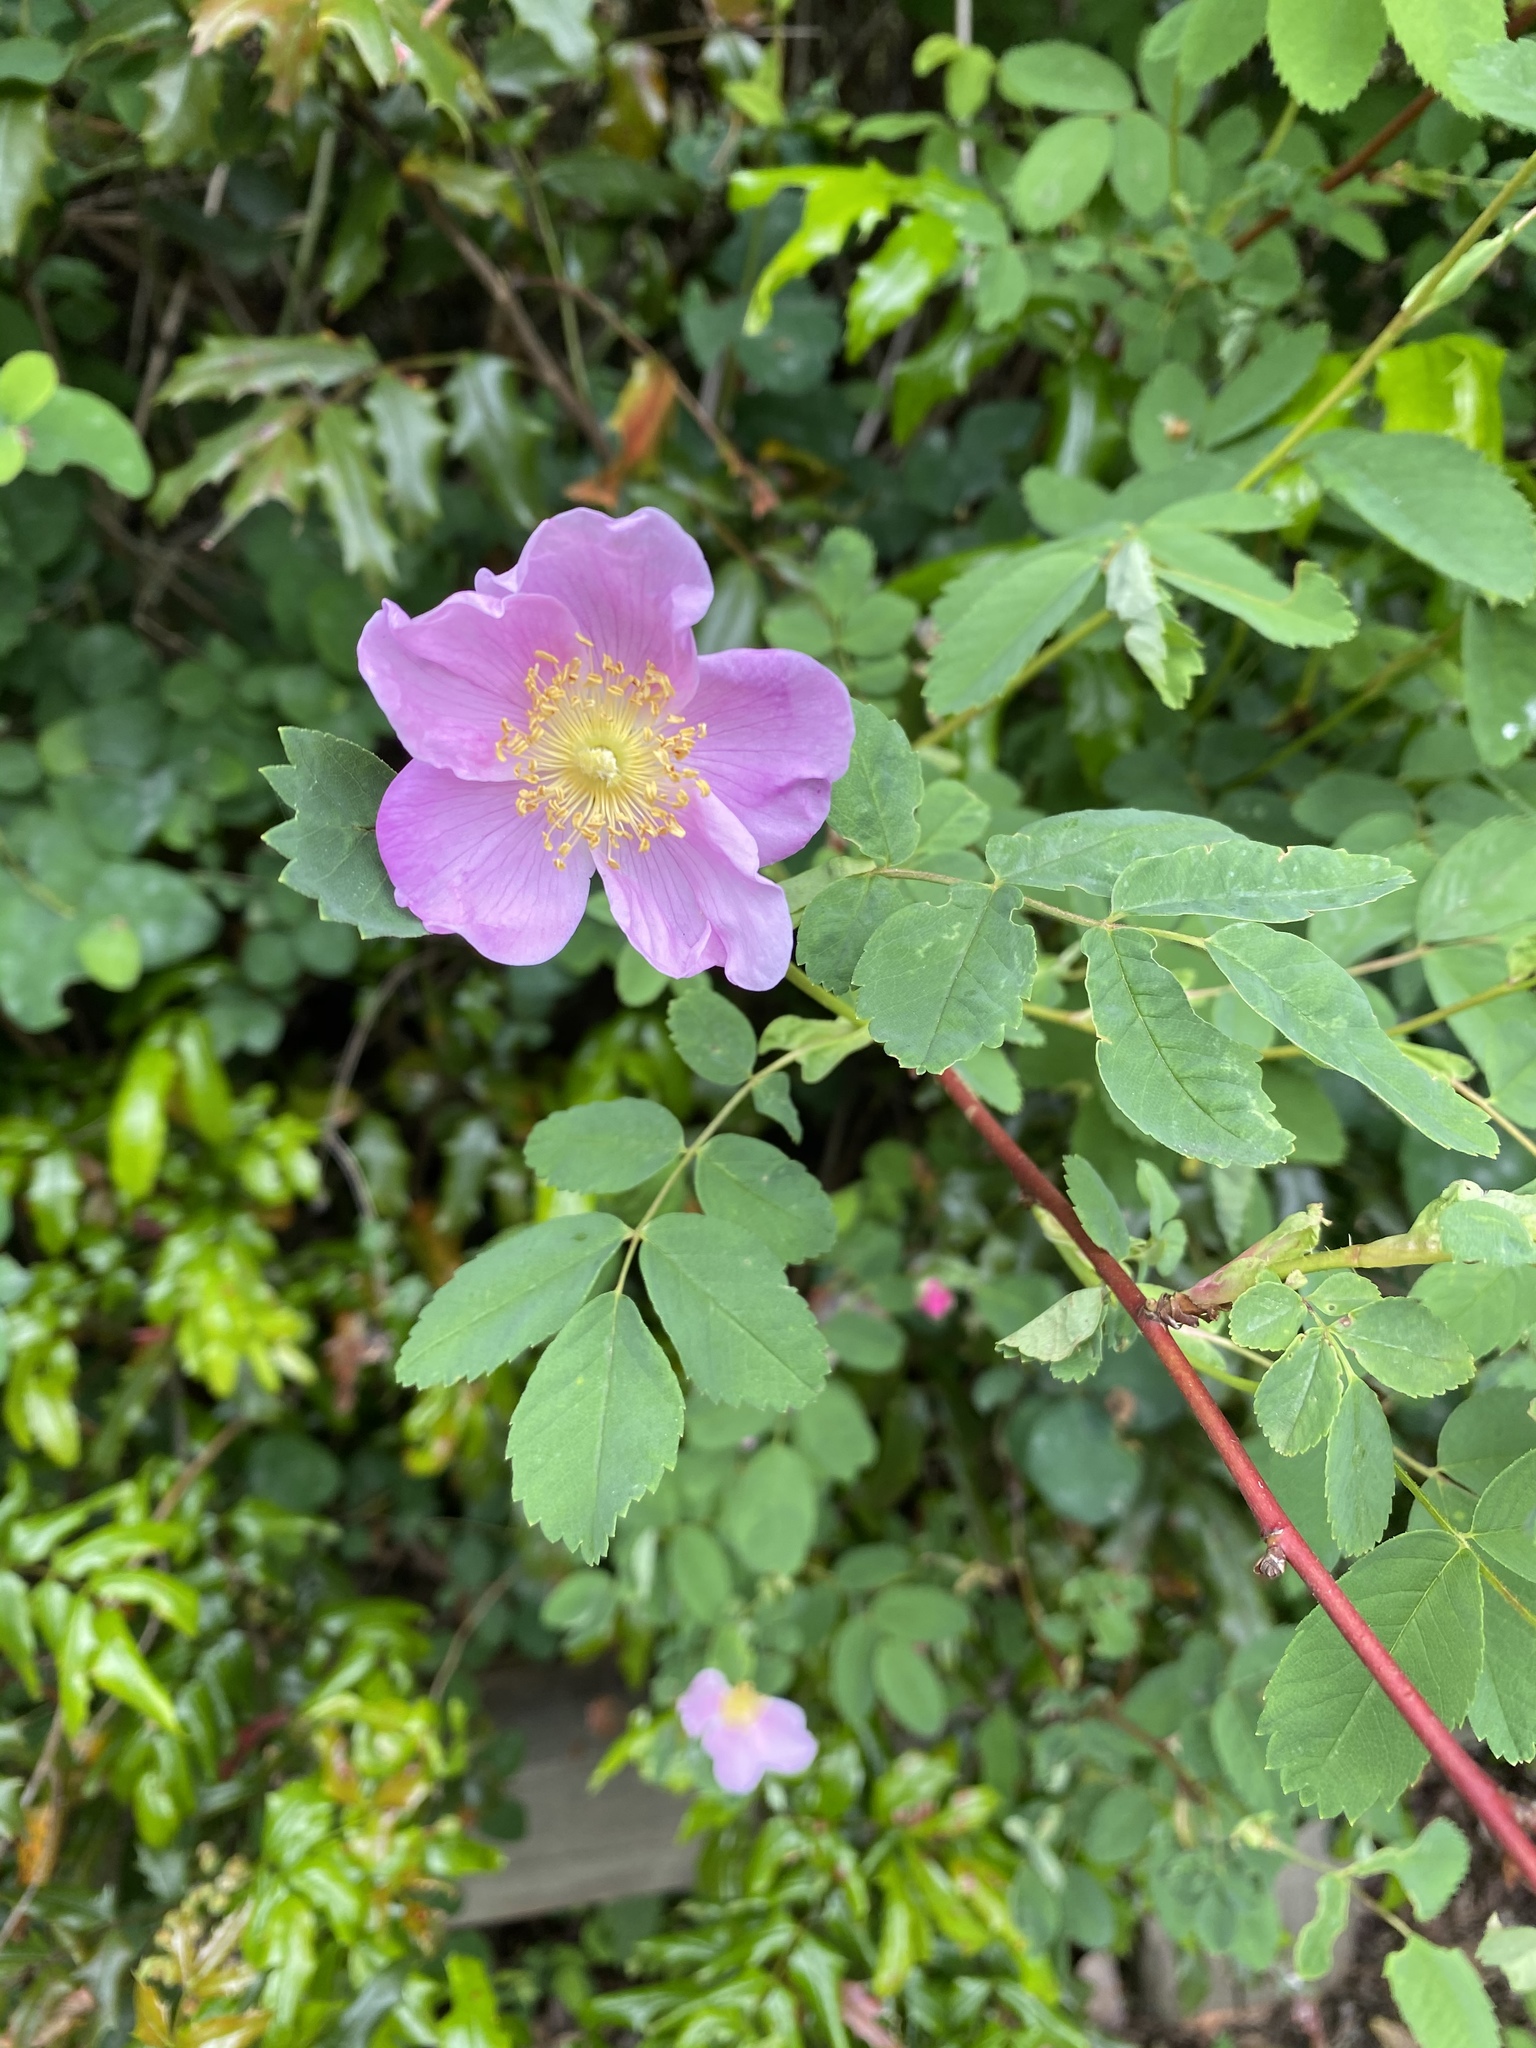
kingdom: Plantae
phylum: Tracheophyta
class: Magnoliopsida
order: Rosales
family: Rosaceae
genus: Rosa
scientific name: Rosa nutkana
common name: Nootka rose
